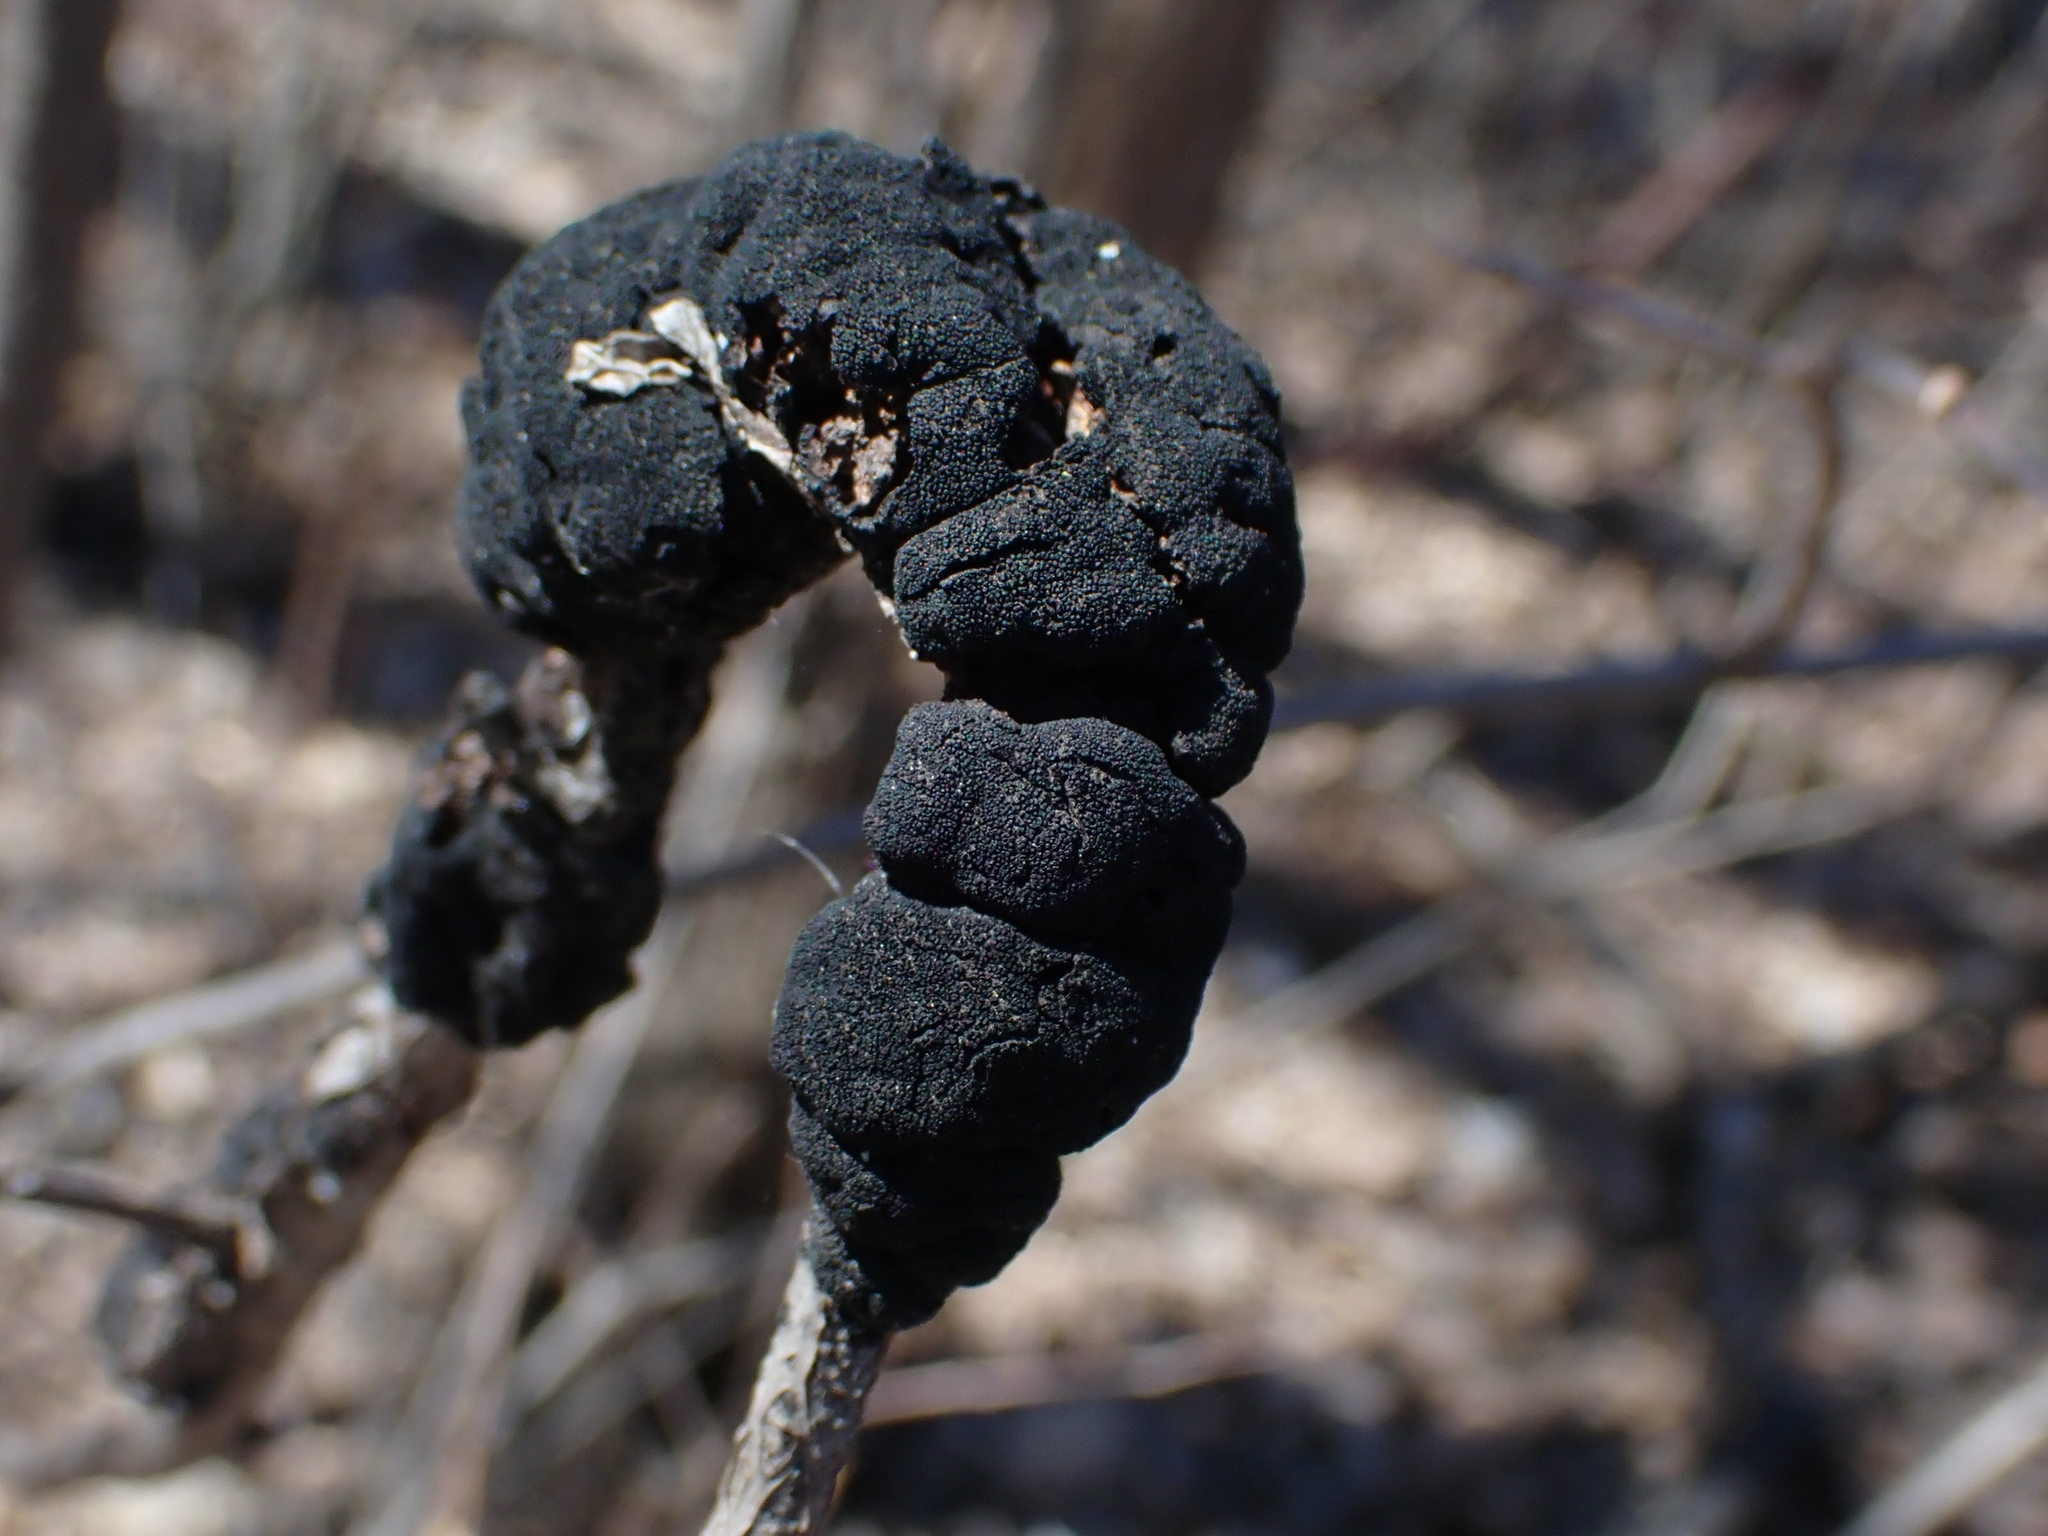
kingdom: Fungi
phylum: Ascomycota
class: Dothideomycetes
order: Venturiales
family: Venturiaceae
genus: Apiosporina
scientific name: Apiosporina morbosa
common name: Black knot
